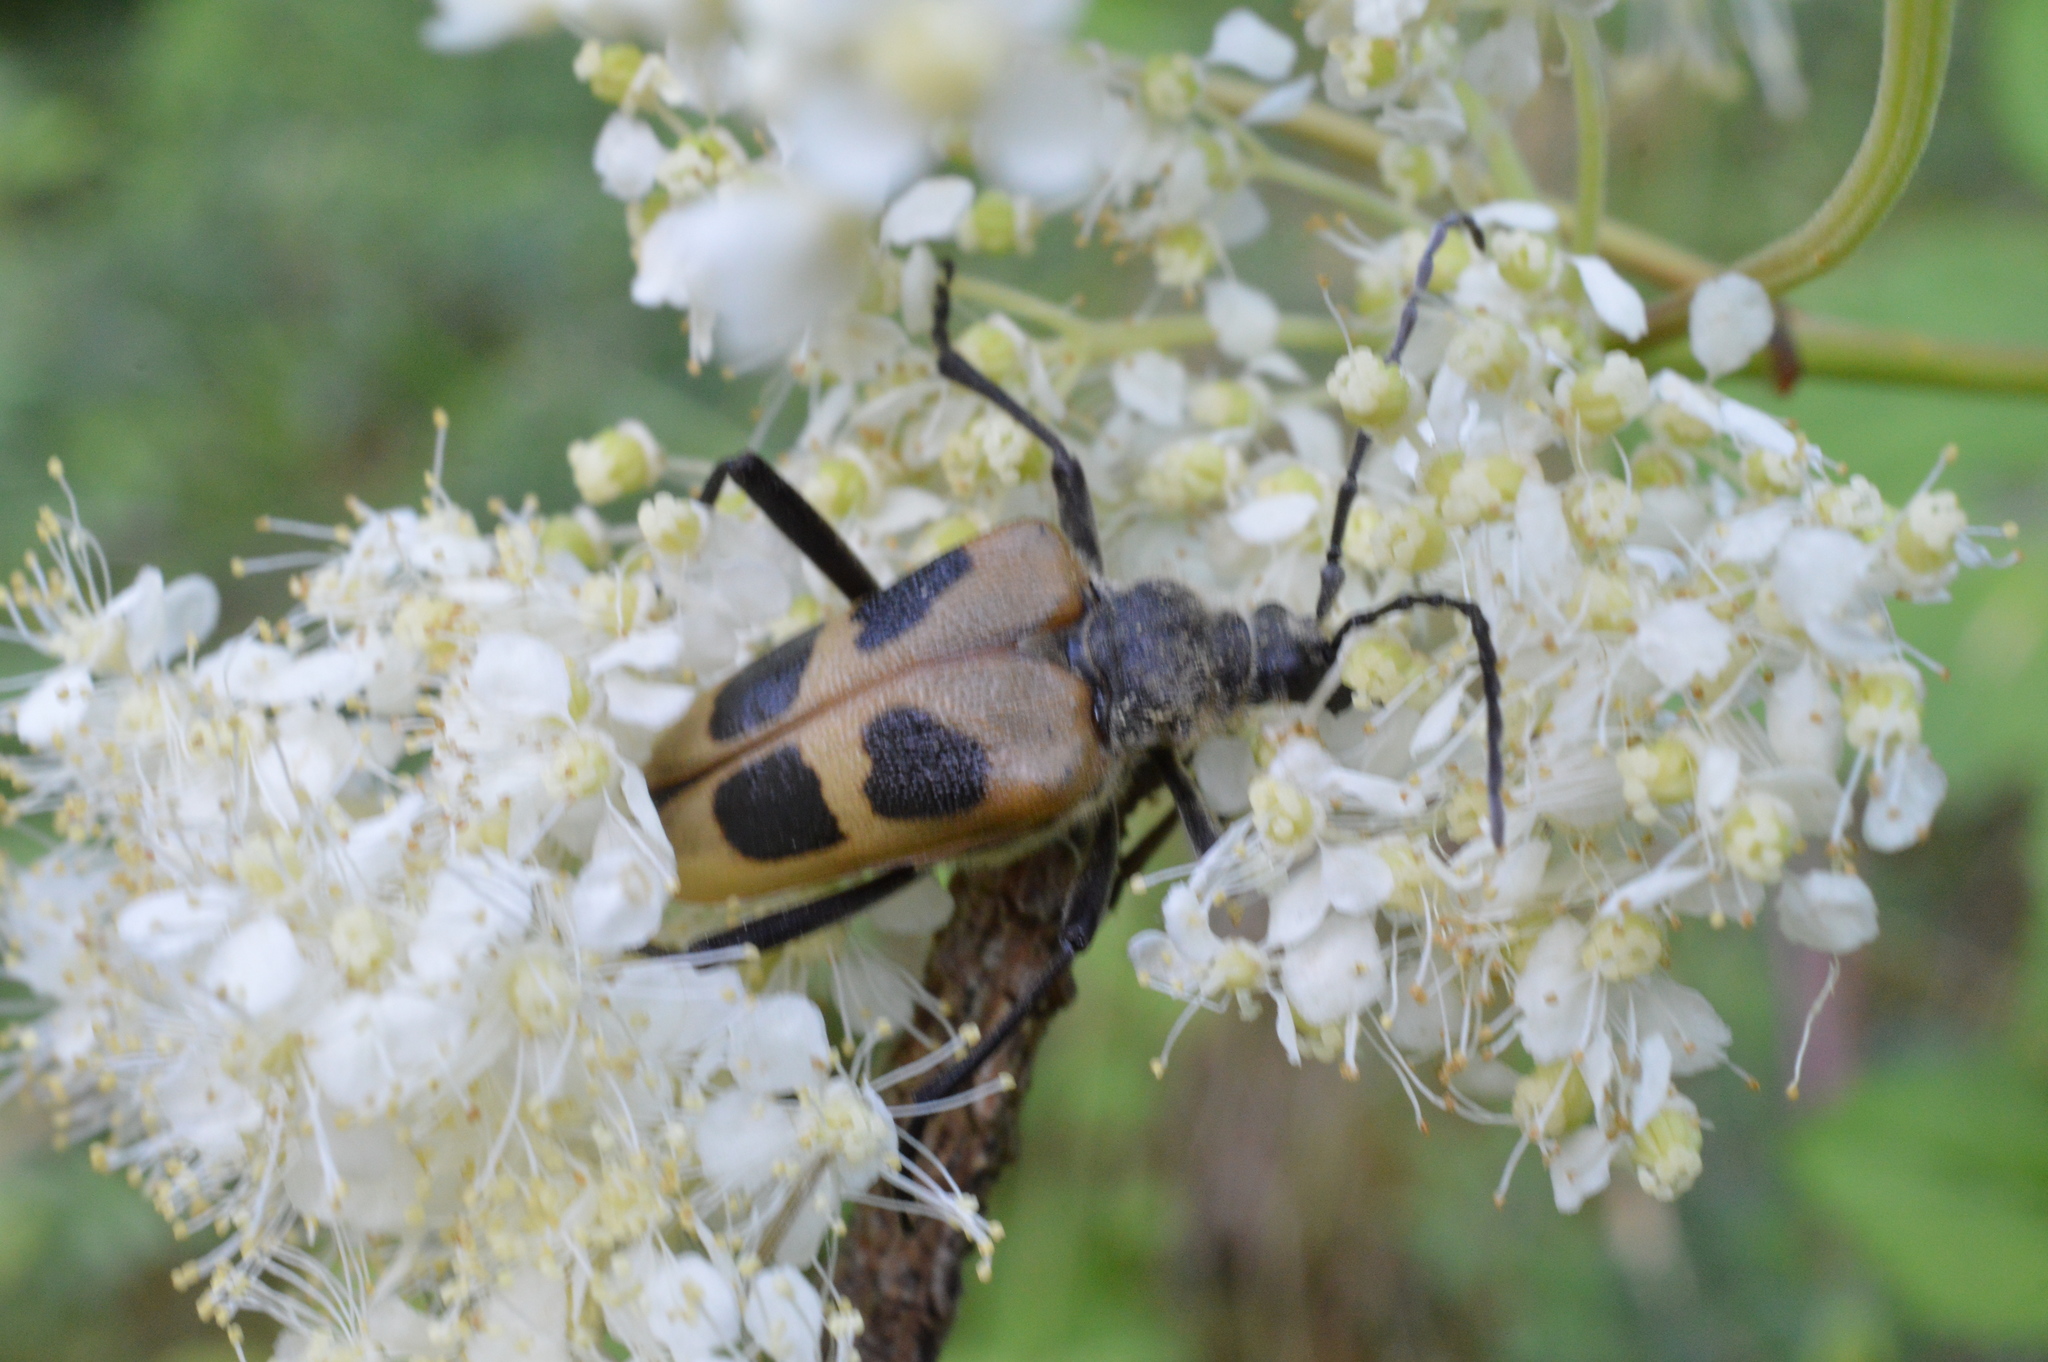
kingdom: Animalia
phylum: Arthropoda
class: Insecta
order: Coleoptera
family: Cerambycidae
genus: Pachyta
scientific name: Pachyta quadrimaculata
